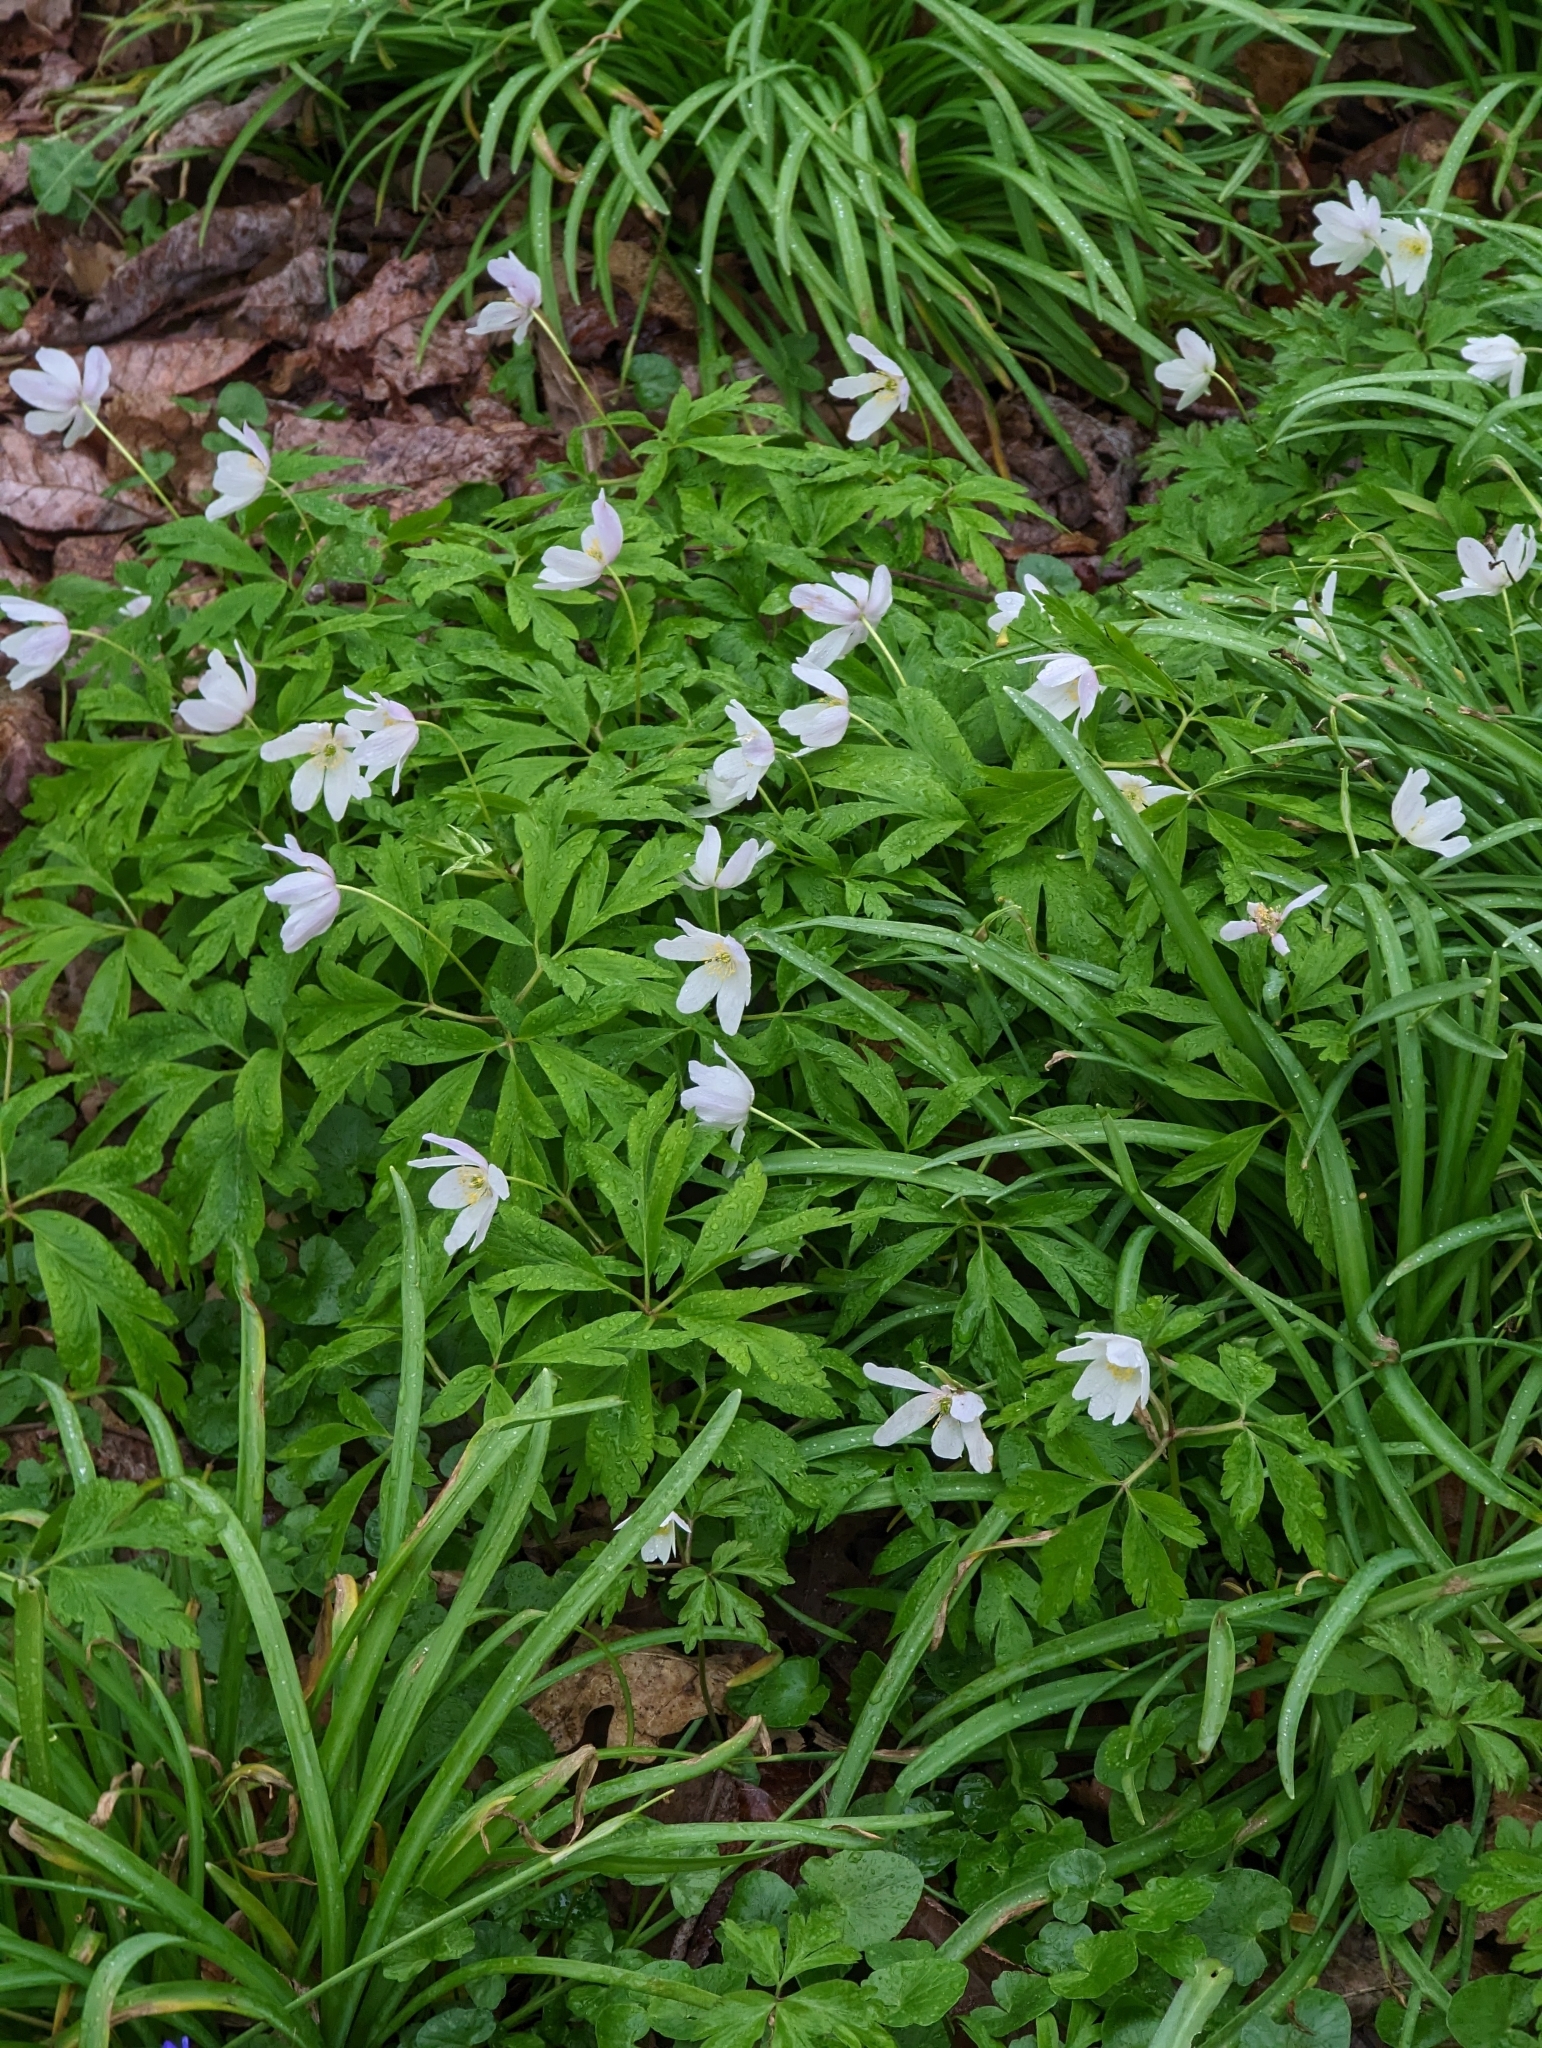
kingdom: Plantae
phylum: Tracheophyta
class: Magnoliopsida
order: Ranunculales
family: Ranunculaceae
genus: Anemone
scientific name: Anemone nemorosa
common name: Wood anemone
